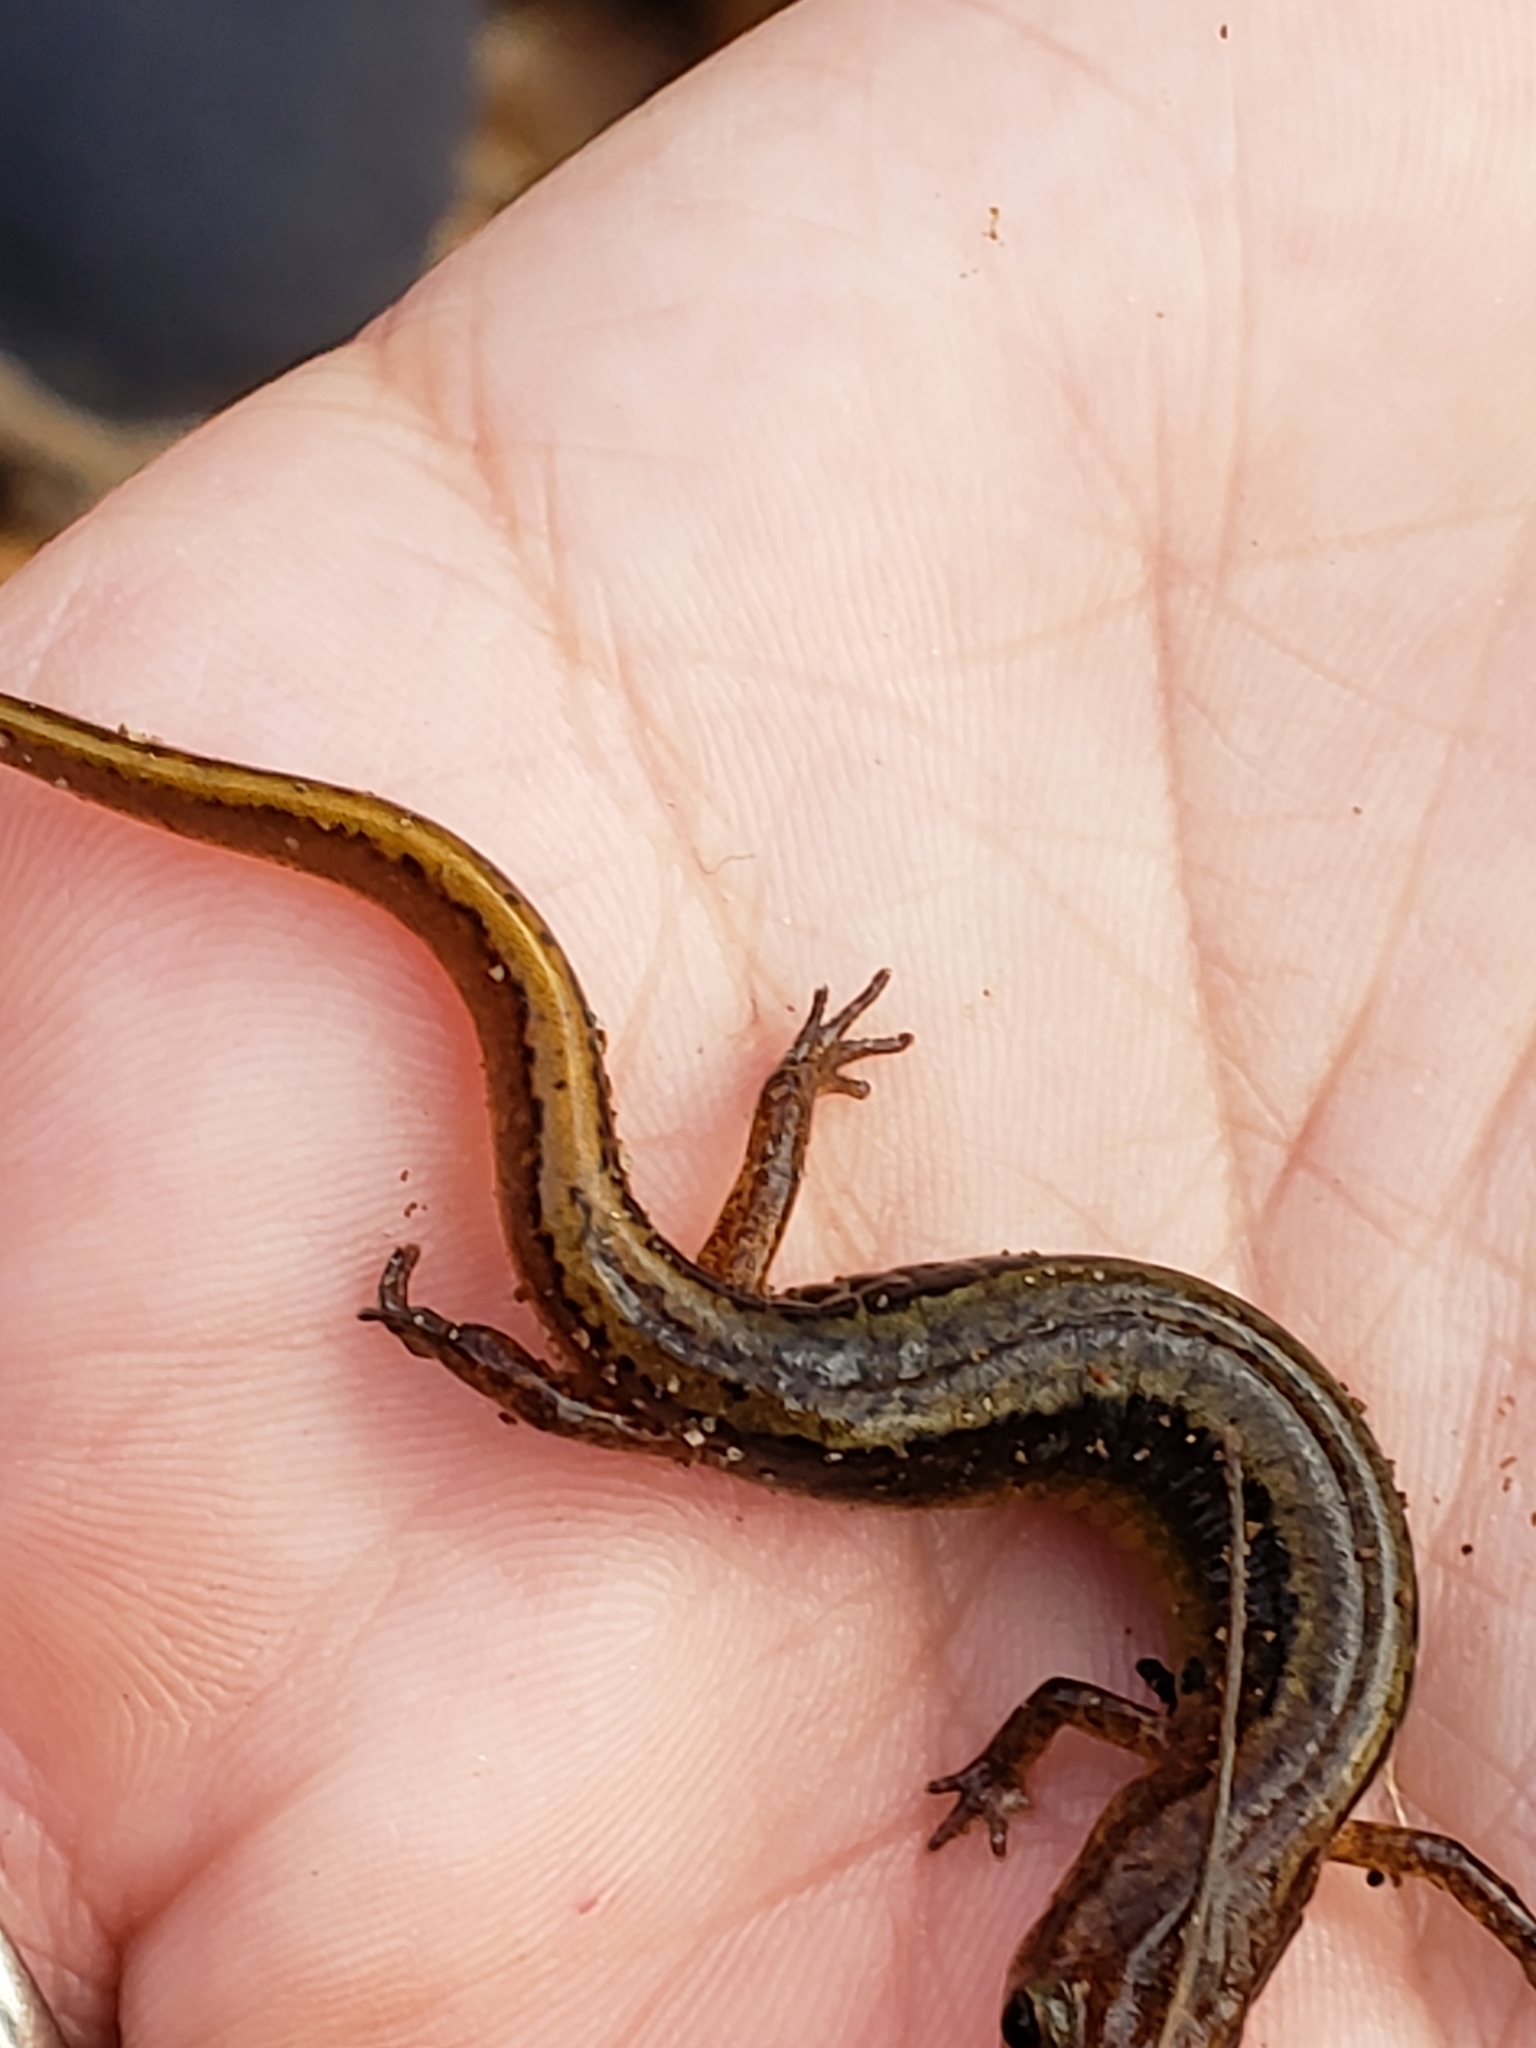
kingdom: Animalia
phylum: Chordata
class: Amphibia
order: Caudata
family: Plethodontidae
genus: Eurycea
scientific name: Eurycea bislineata
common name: Northern two-lined salamander
